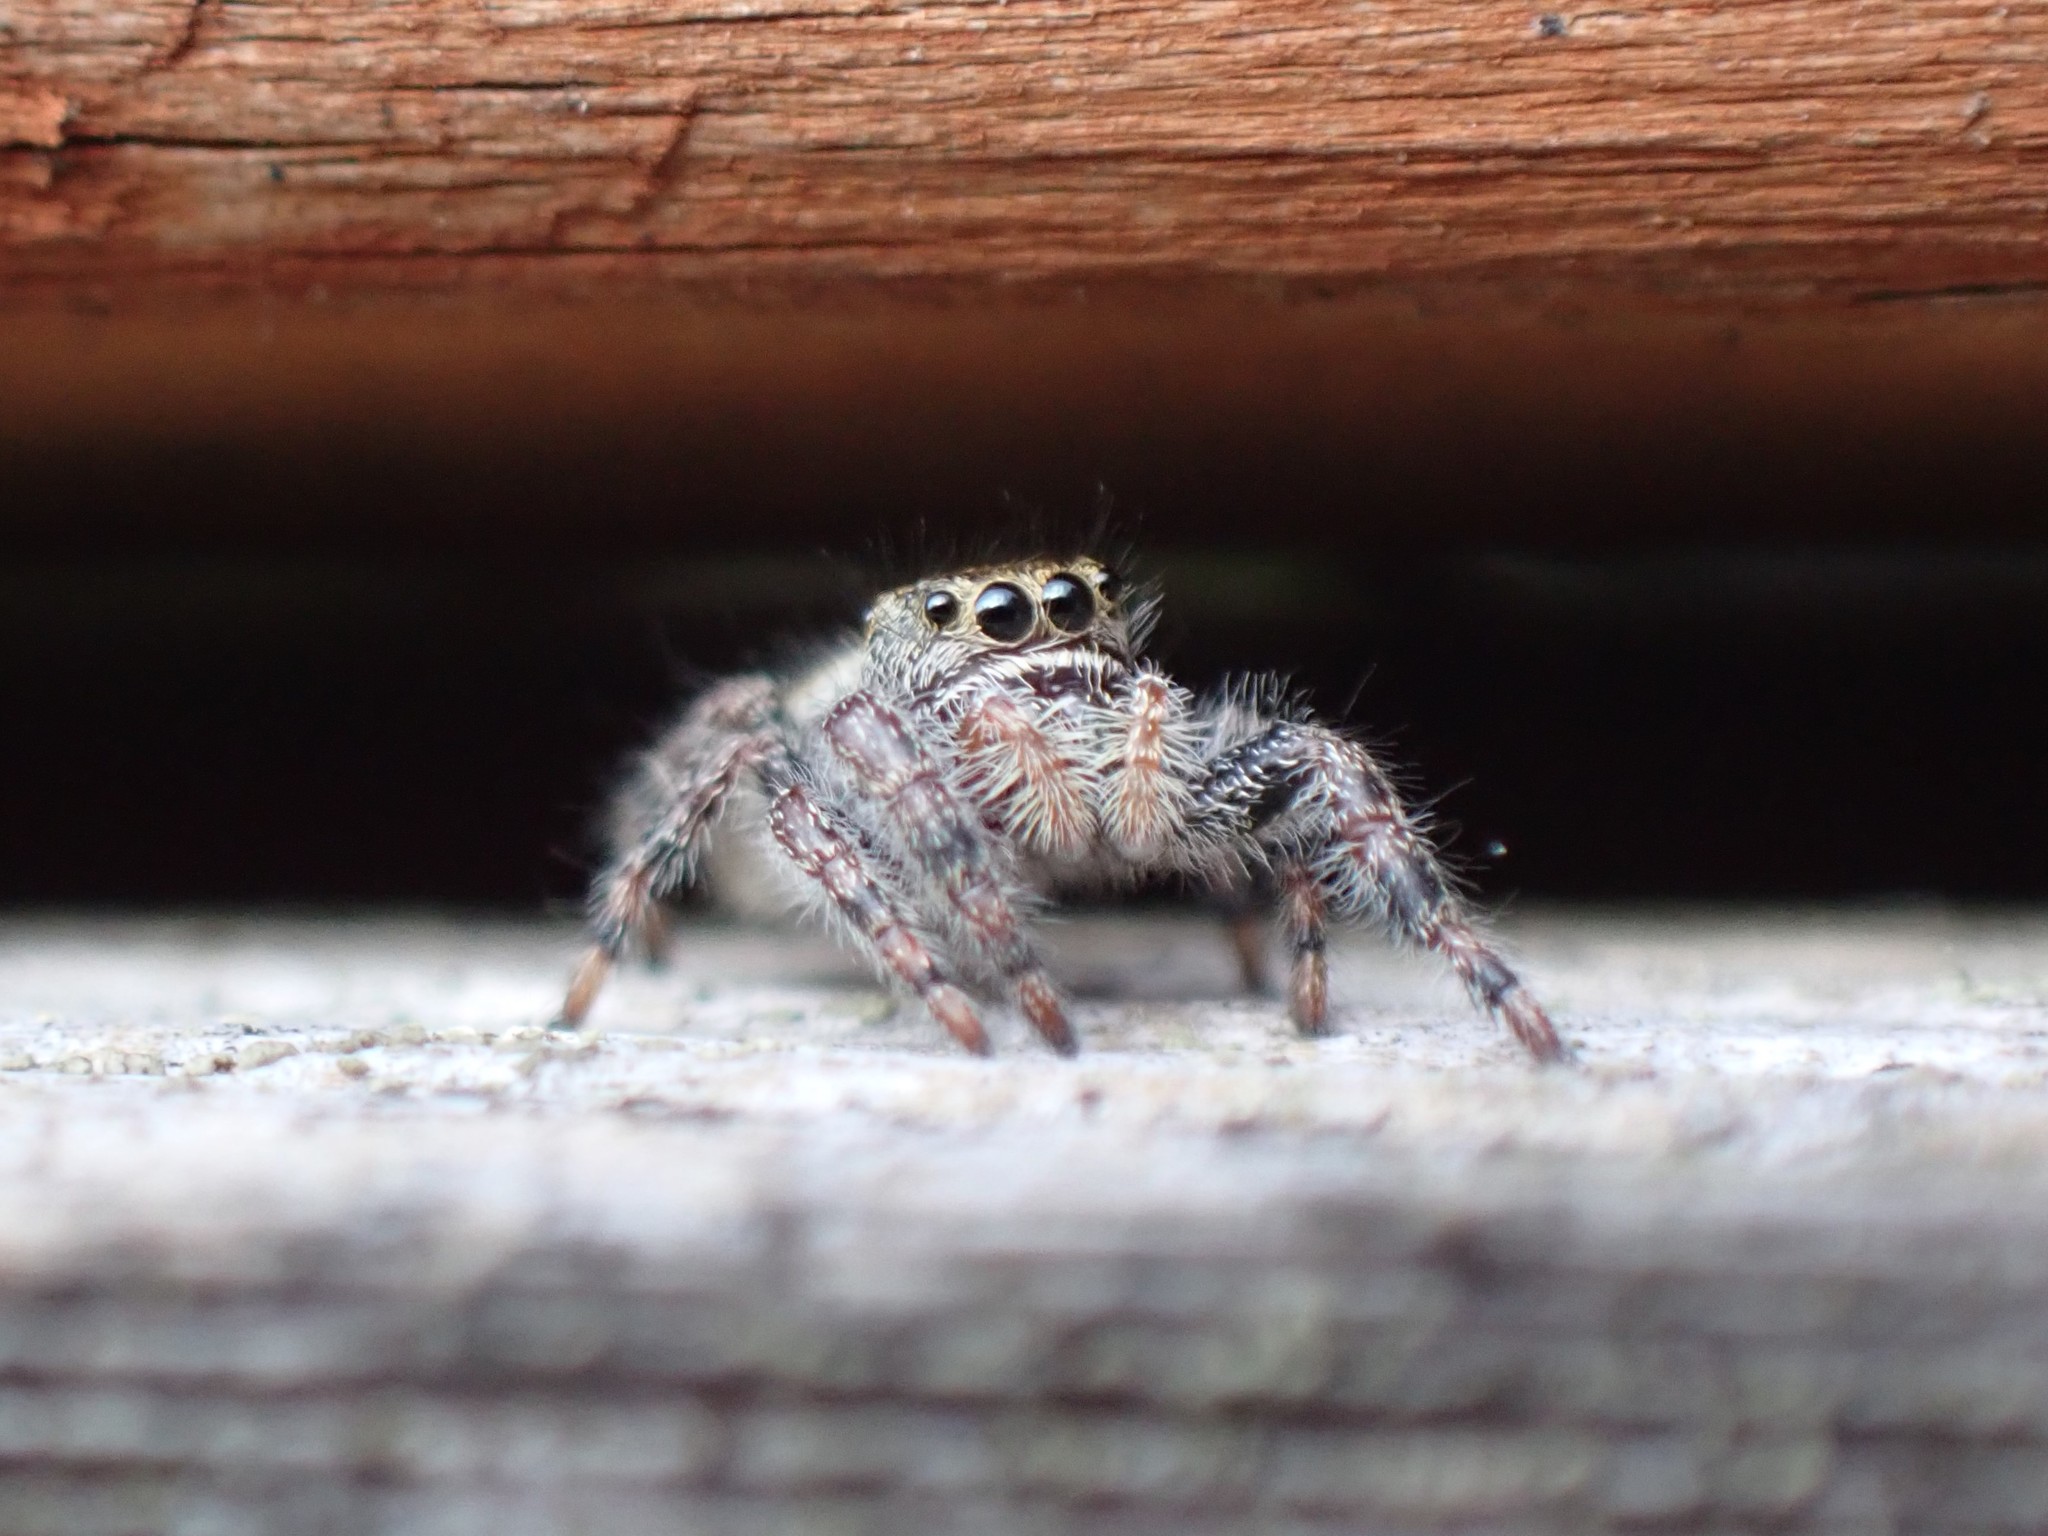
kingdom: Animalia
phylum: Arthropoda
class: Arachnida
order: Araneae
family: Salticidae
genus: Phidippus
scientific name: Phidippus audax
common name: Bold jumper
